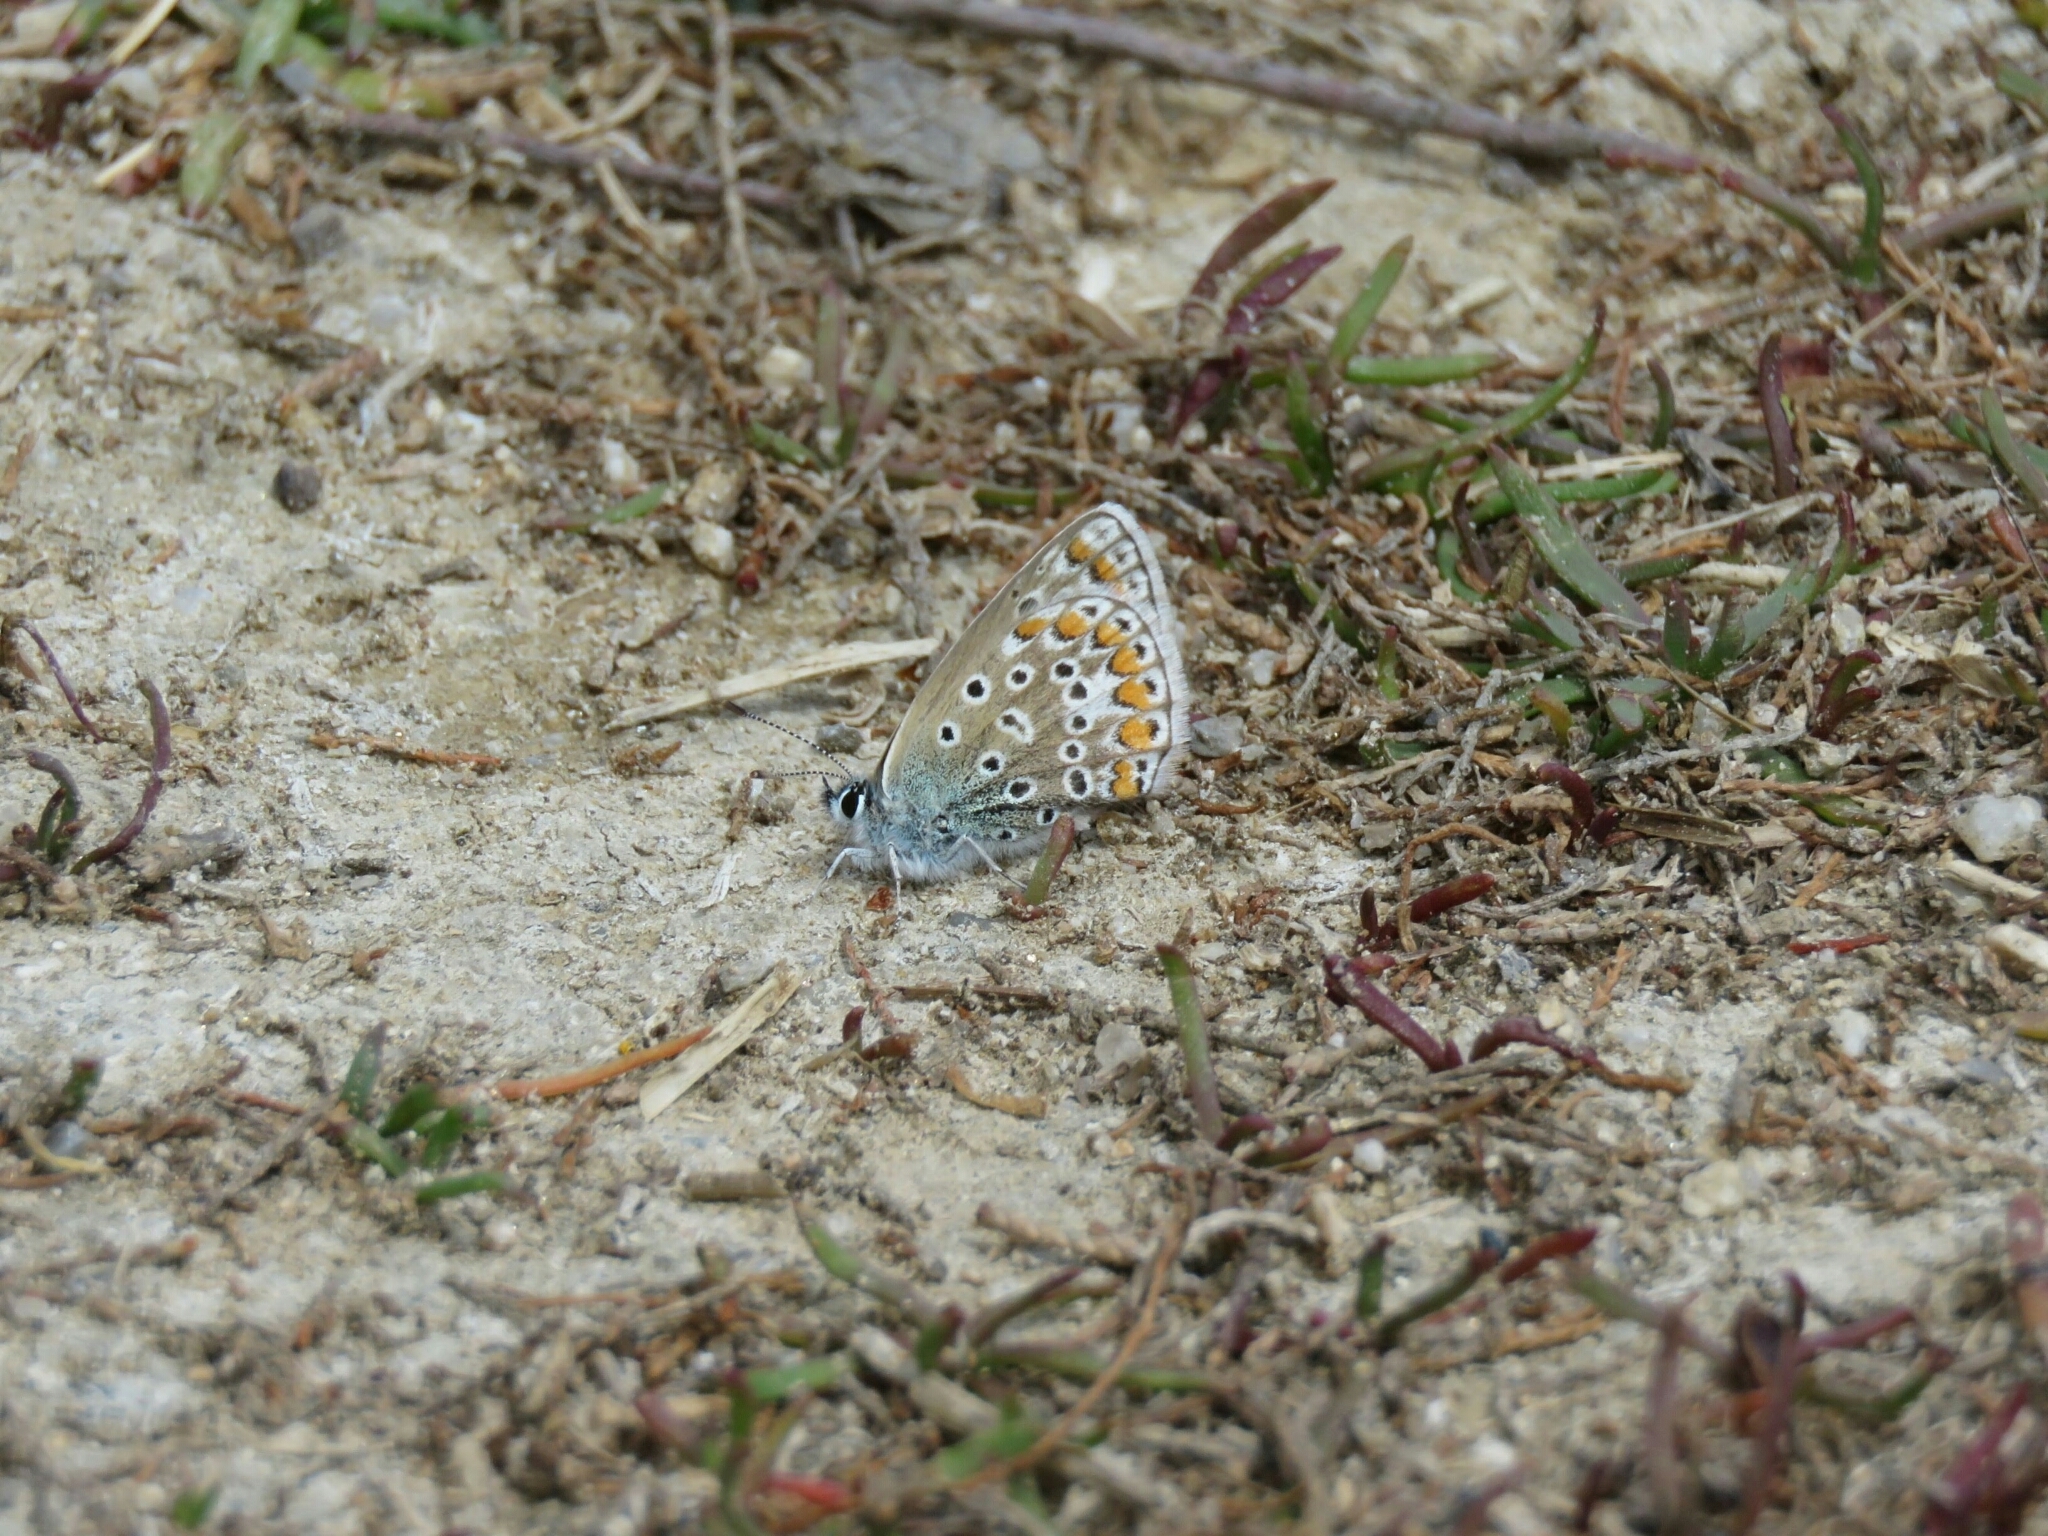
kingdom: Animalia
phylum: Arthropoda
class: Insecta
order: Lepidoptera
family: Lycaenidae
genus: Polyommatus
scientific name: Polyommatus icarus
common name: Common blue
